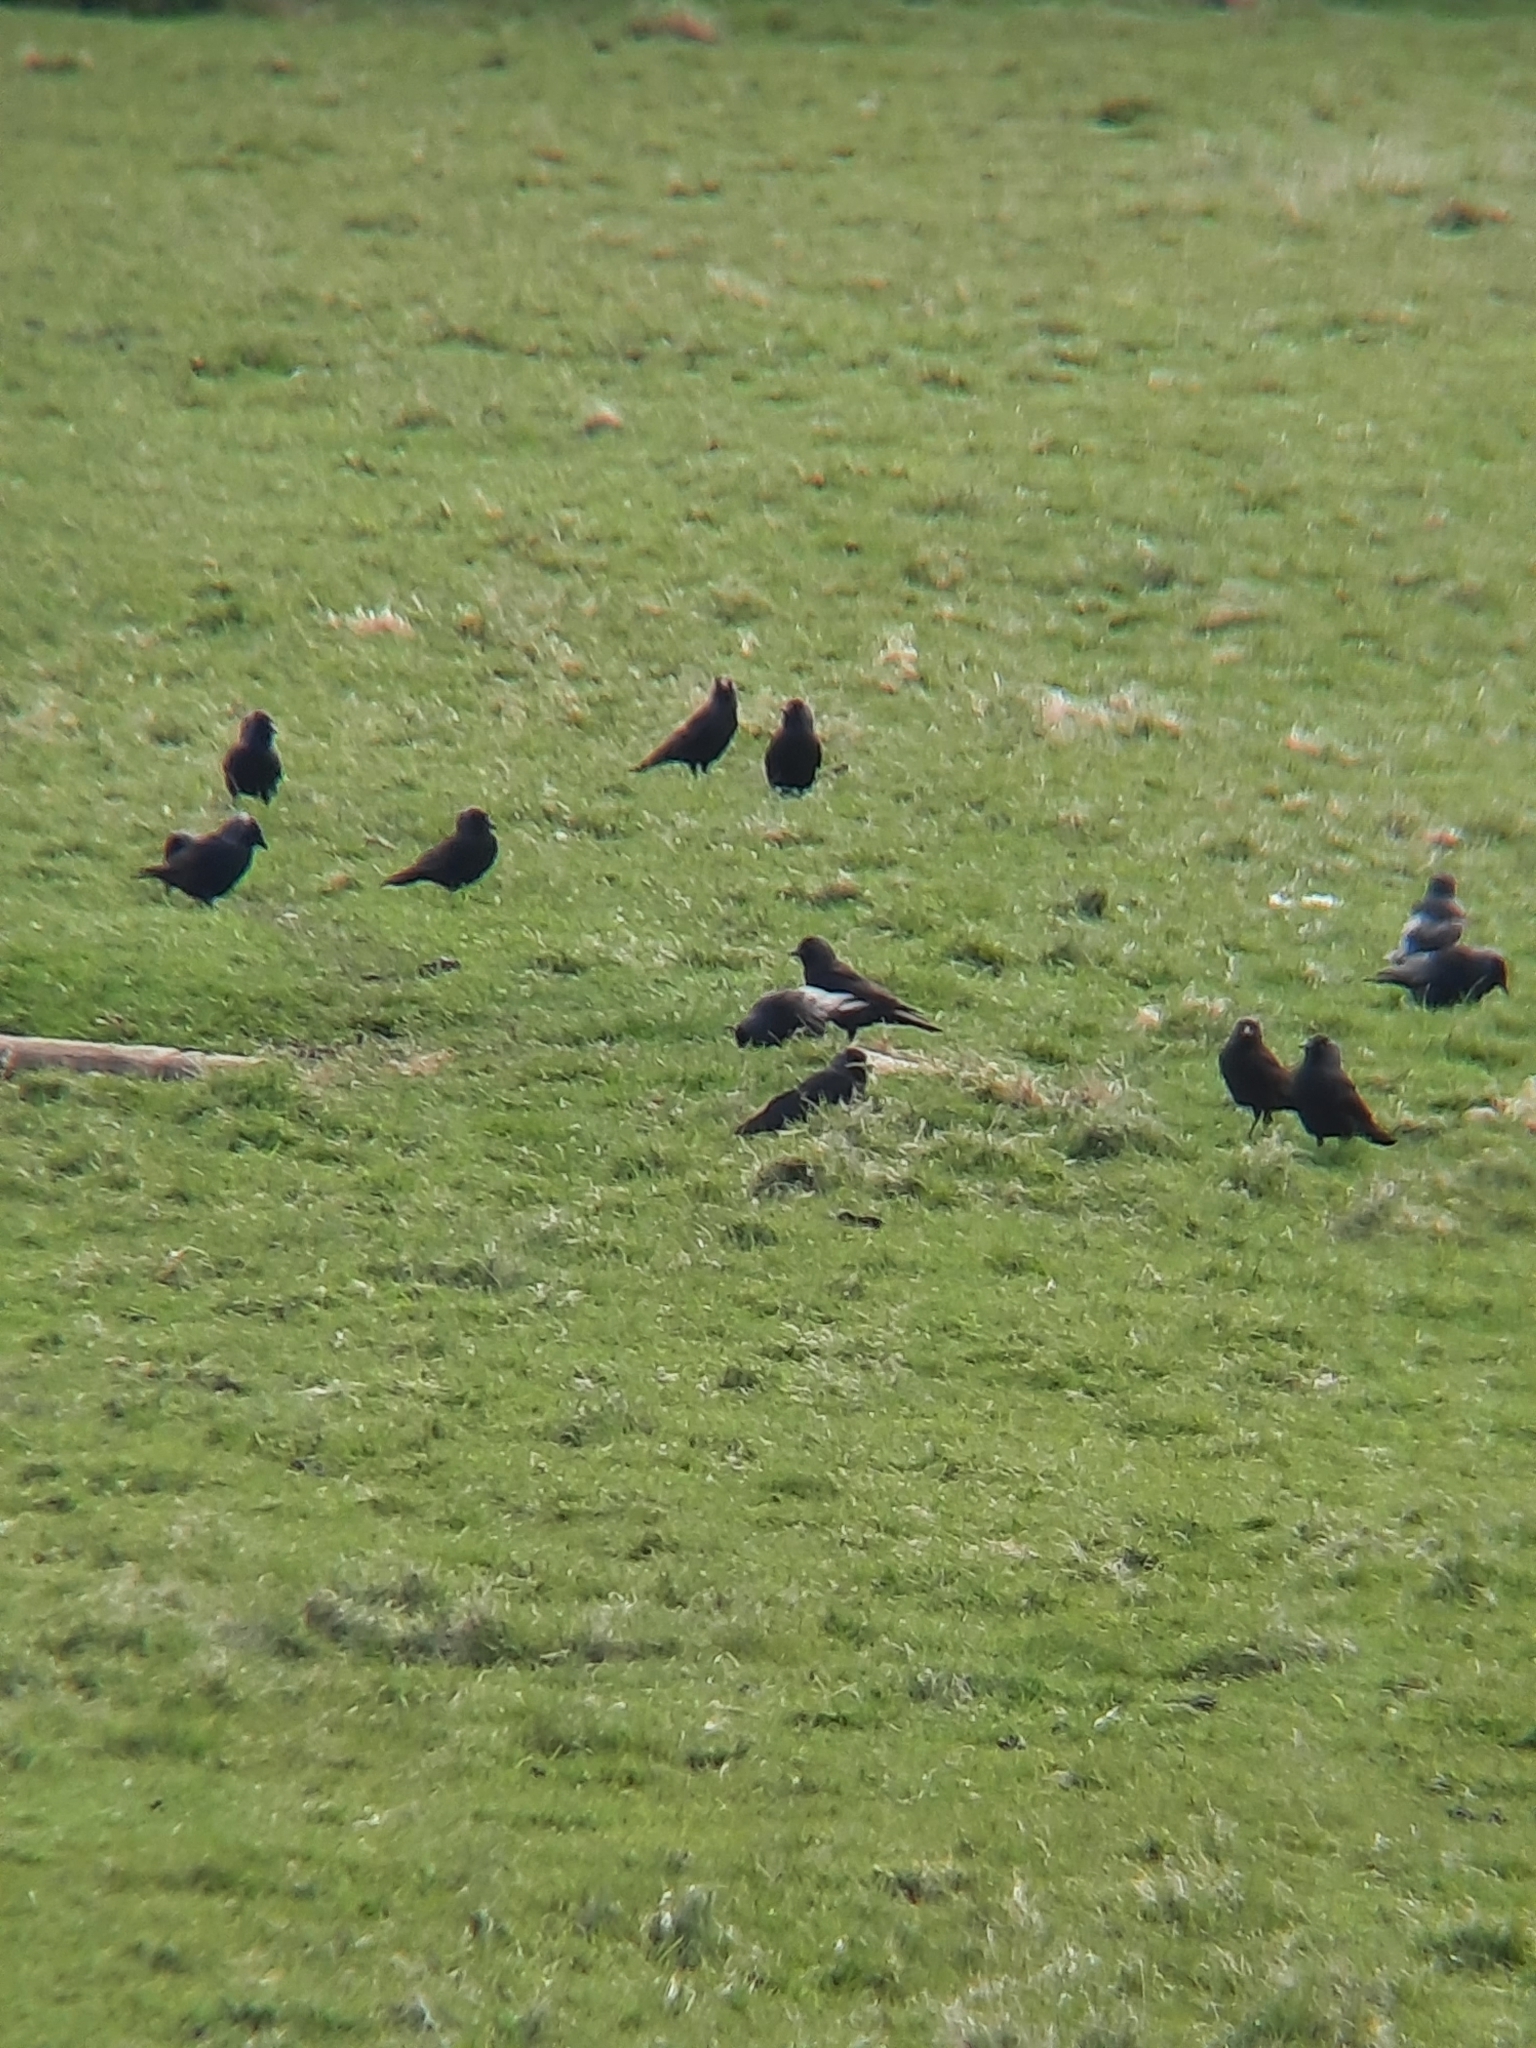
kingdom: Animalia
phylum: Chordata
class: Aves
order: Passeriformes
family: Corvidae
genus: Coloeus
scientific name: Coloeus monedula
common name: Western jackdaw
